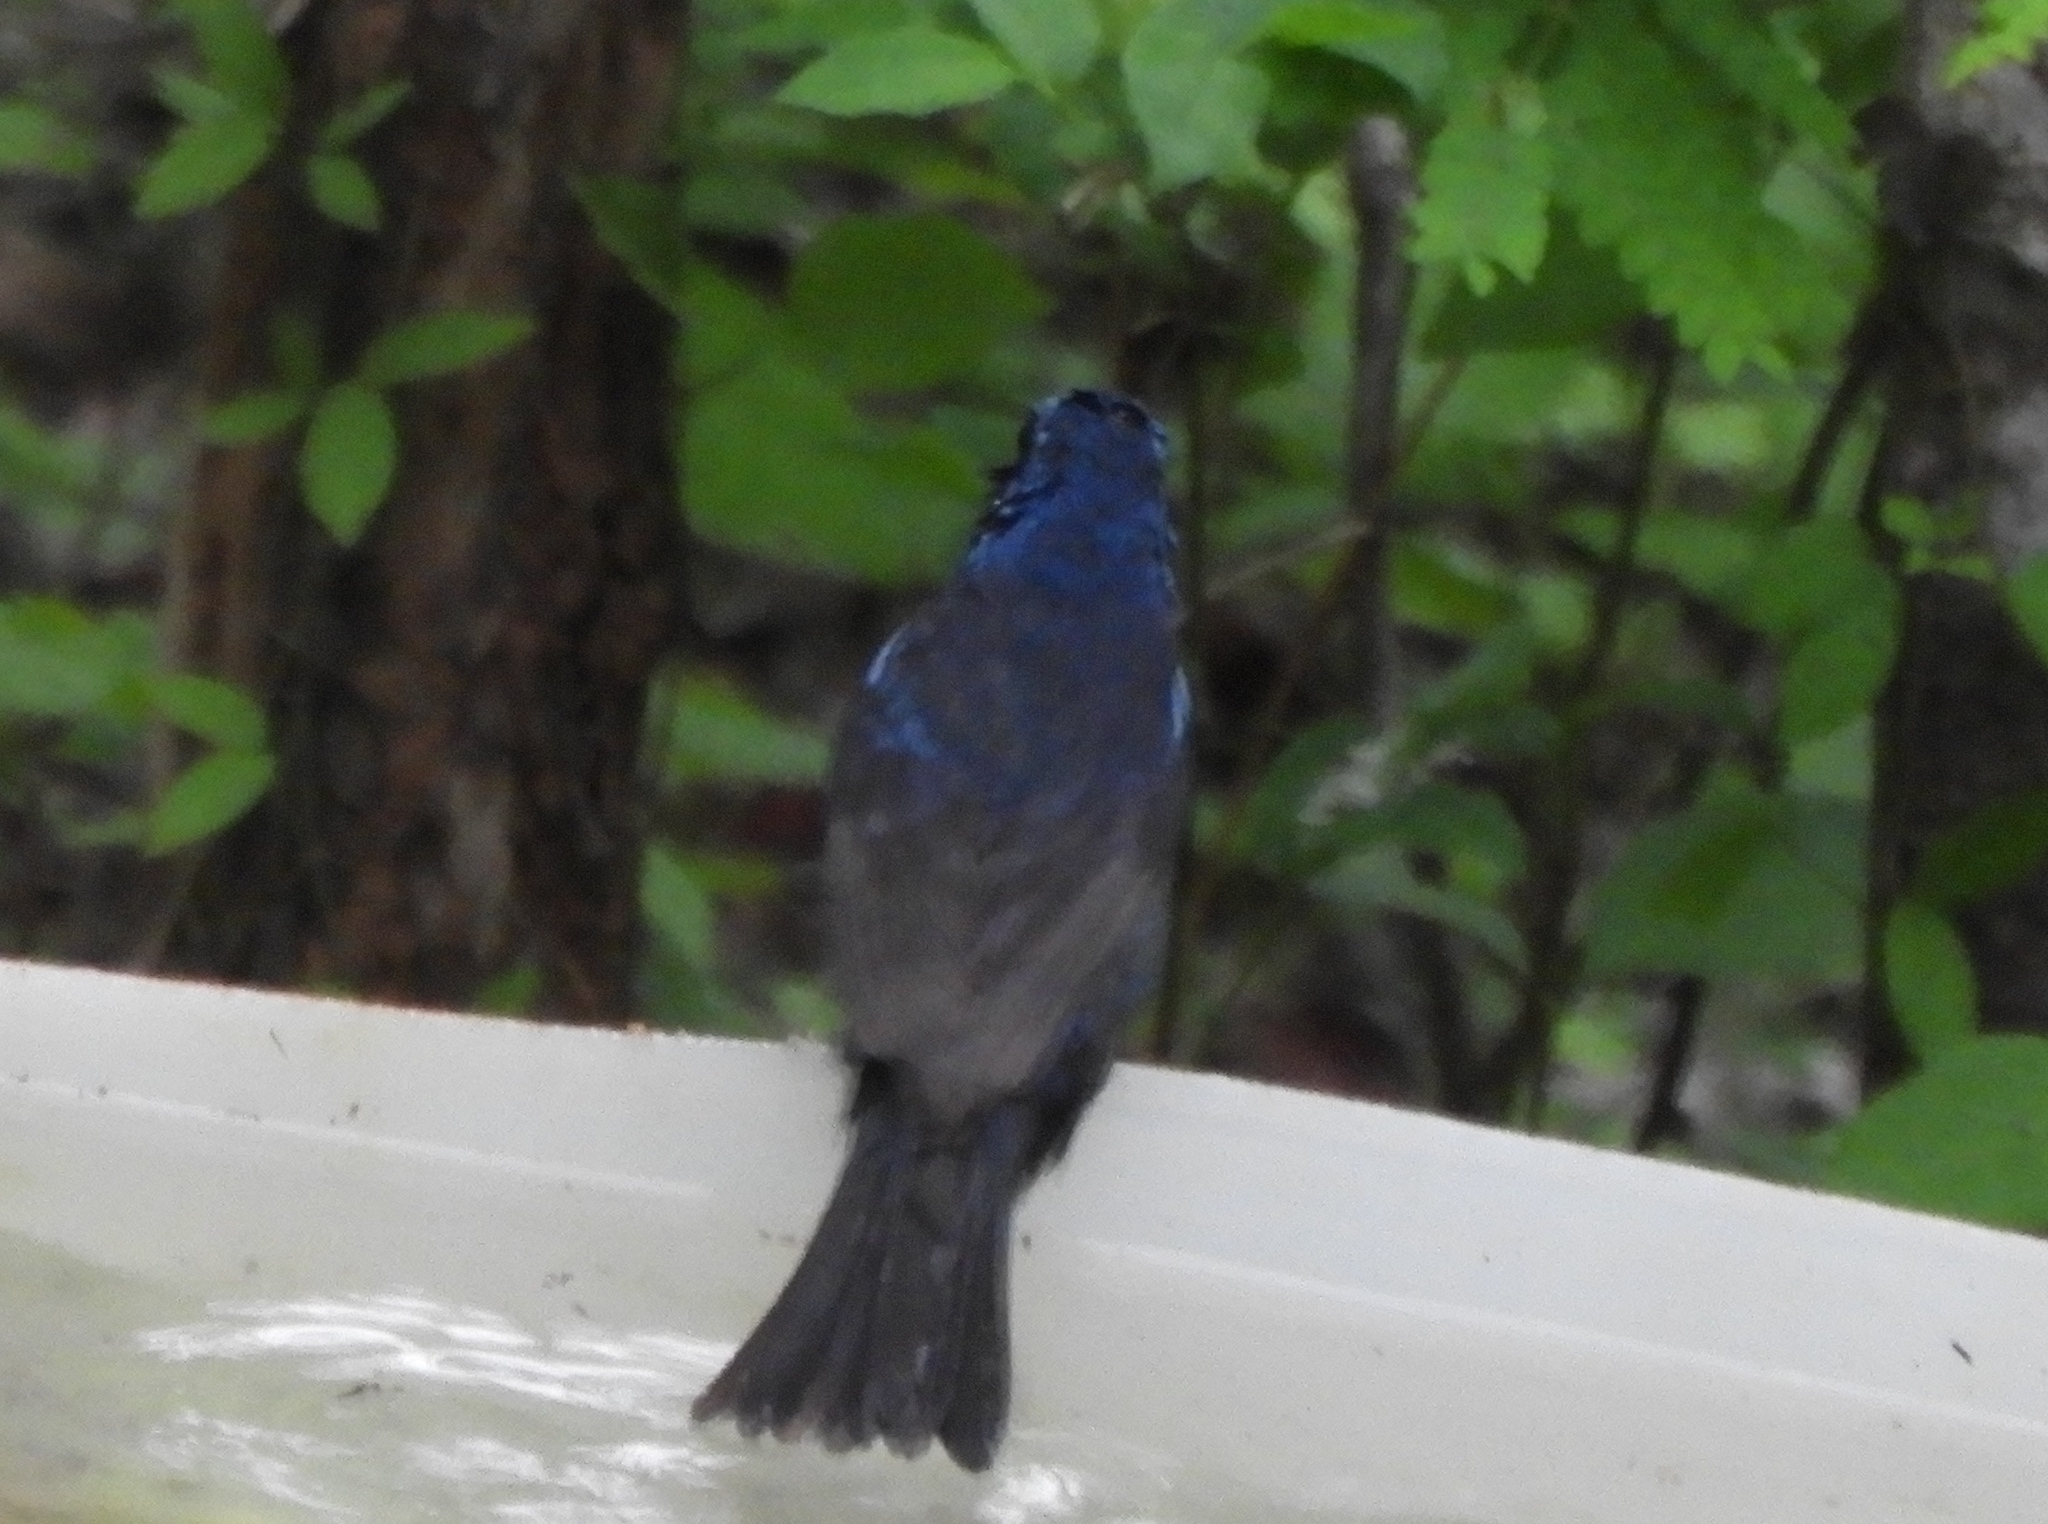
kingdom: Animalia
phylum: Chordata
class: Aves
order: Passeriformes
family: Cardinalidae
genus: Cyanocompsa
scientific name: Cyanocompsa parellina
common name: Blue bunting
